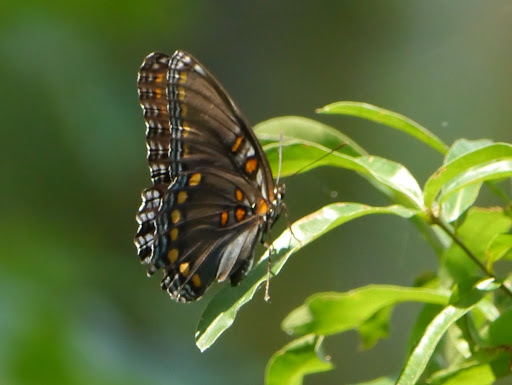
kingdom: Animalia
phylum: Arthropoda
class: Insecta
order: Lepidoptera
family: Nymphalidae
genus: Limenitis
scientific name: Limenitis astyanax
